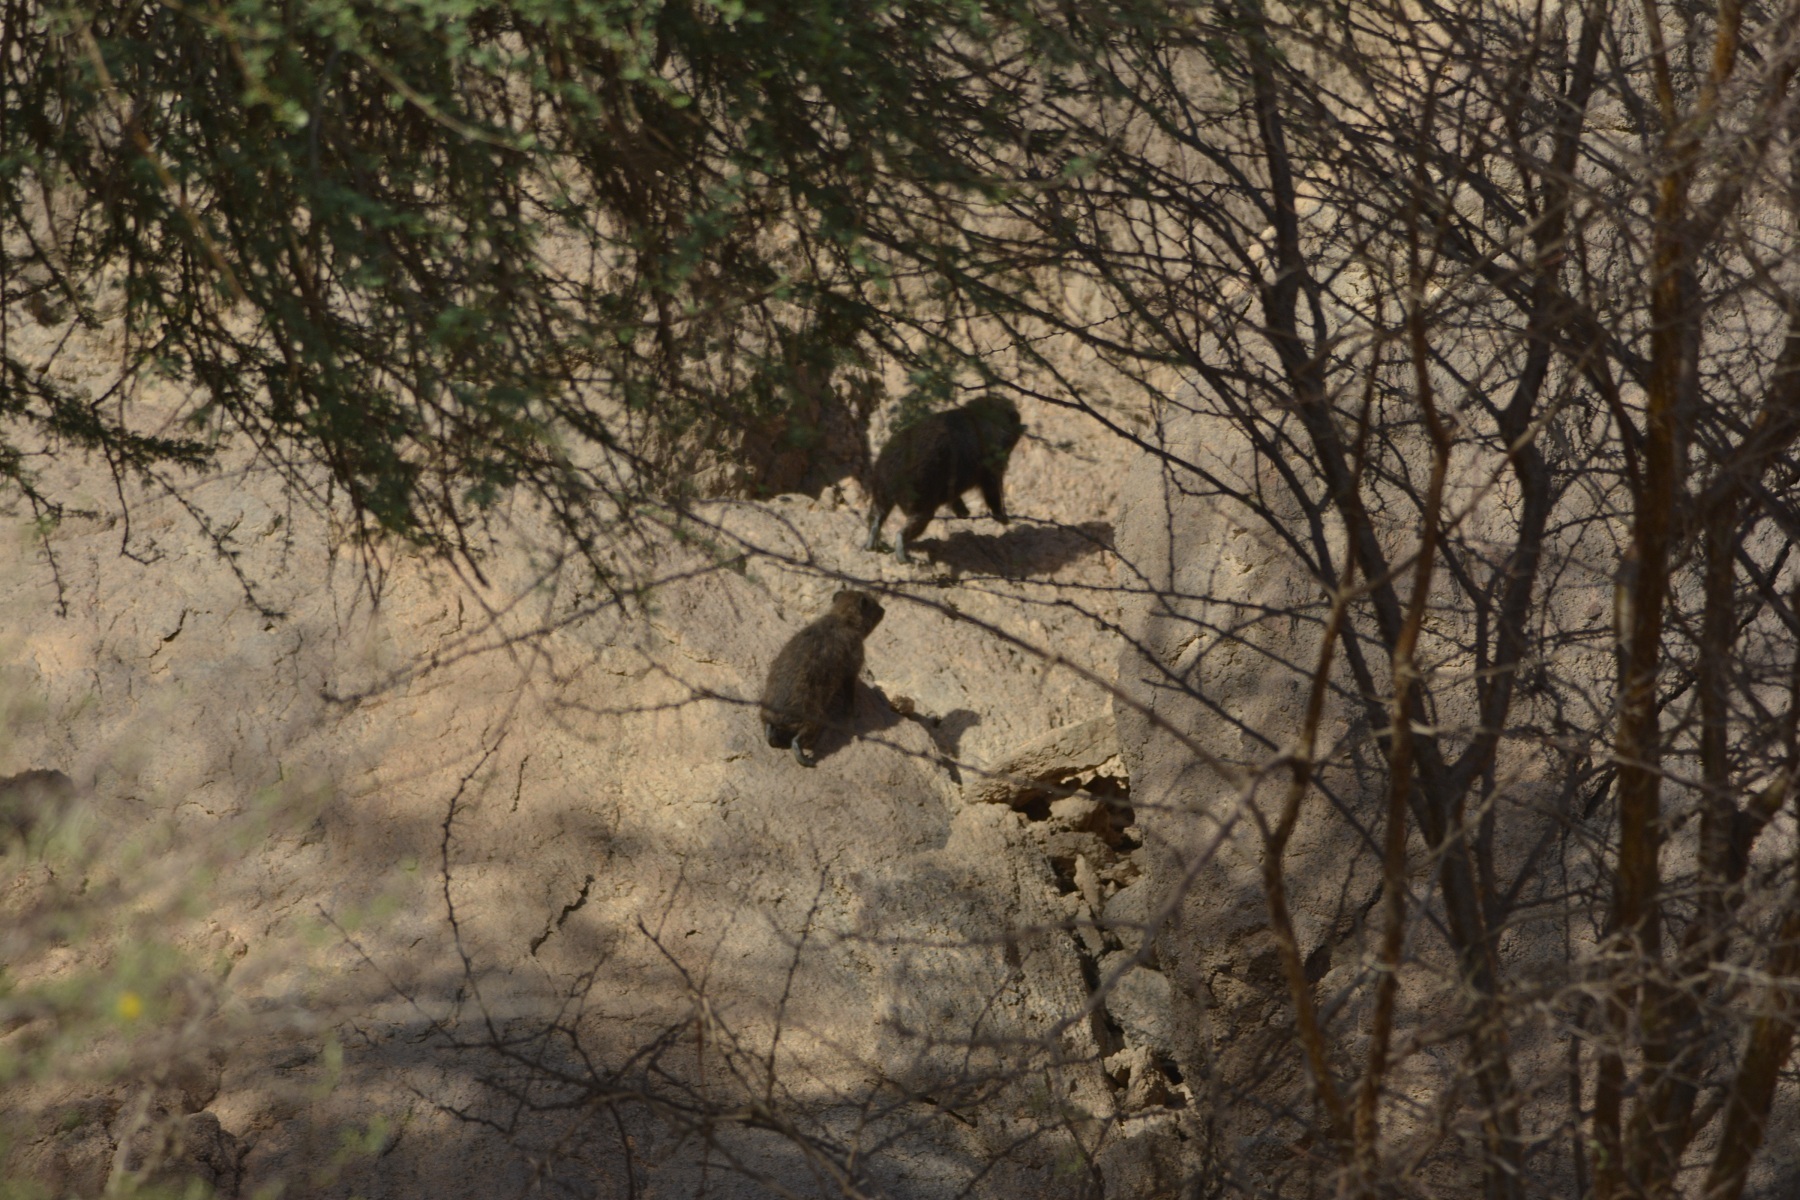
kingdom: Animalia
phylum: Chordata
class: Mammalia
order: Hyracoidea
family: Procaviidae
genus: Procavia
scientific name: Procavia capensis
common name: Rock hyrax
